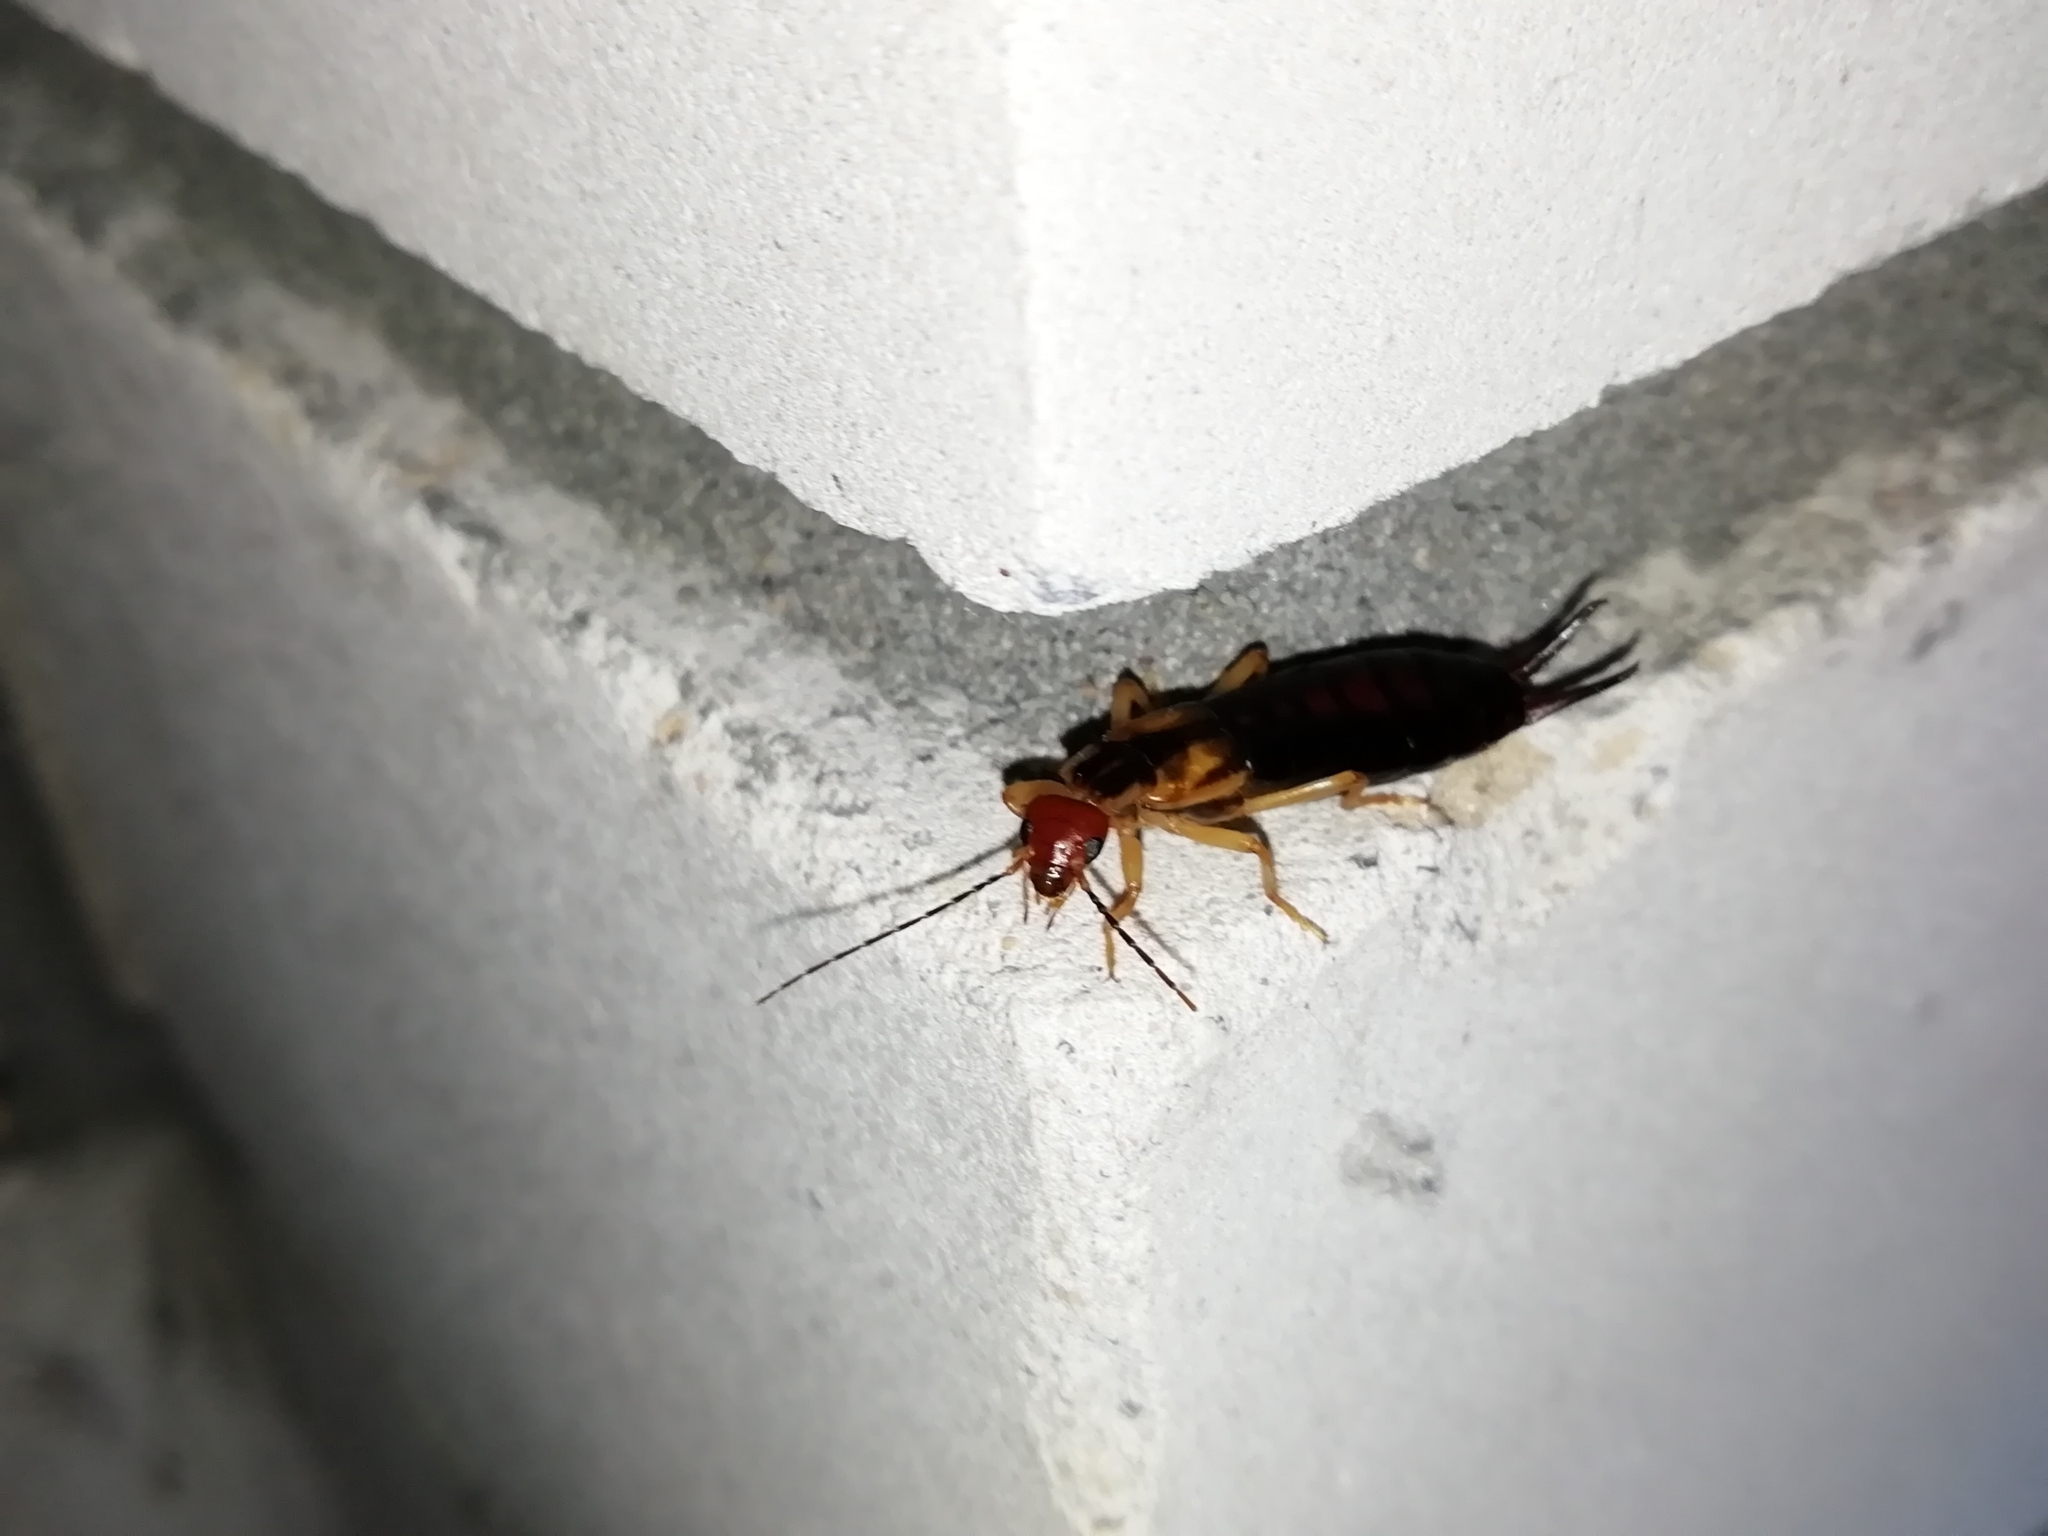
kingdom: Animalia
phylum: Arthropoda
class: Insecta
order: Dermaptera
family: Forficulidae
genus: Forficula
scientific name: Forficula tomis
